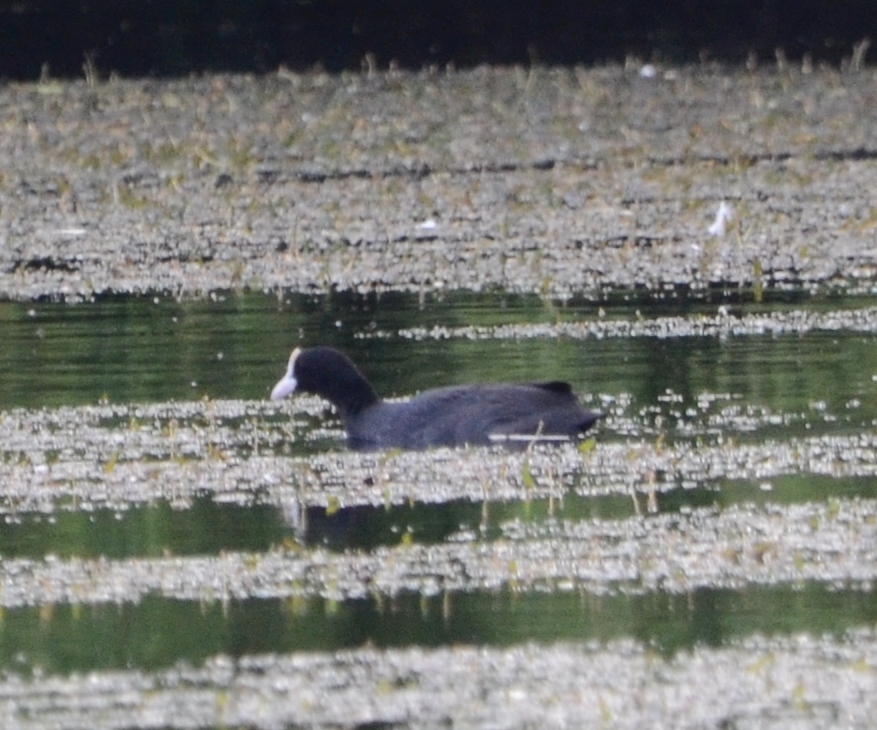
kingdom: Animalia
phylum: Chordata
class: Aves
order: Gruiformes
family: Rallidae
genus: Fulica
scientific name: Fulica atra
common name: Eurasian coot
